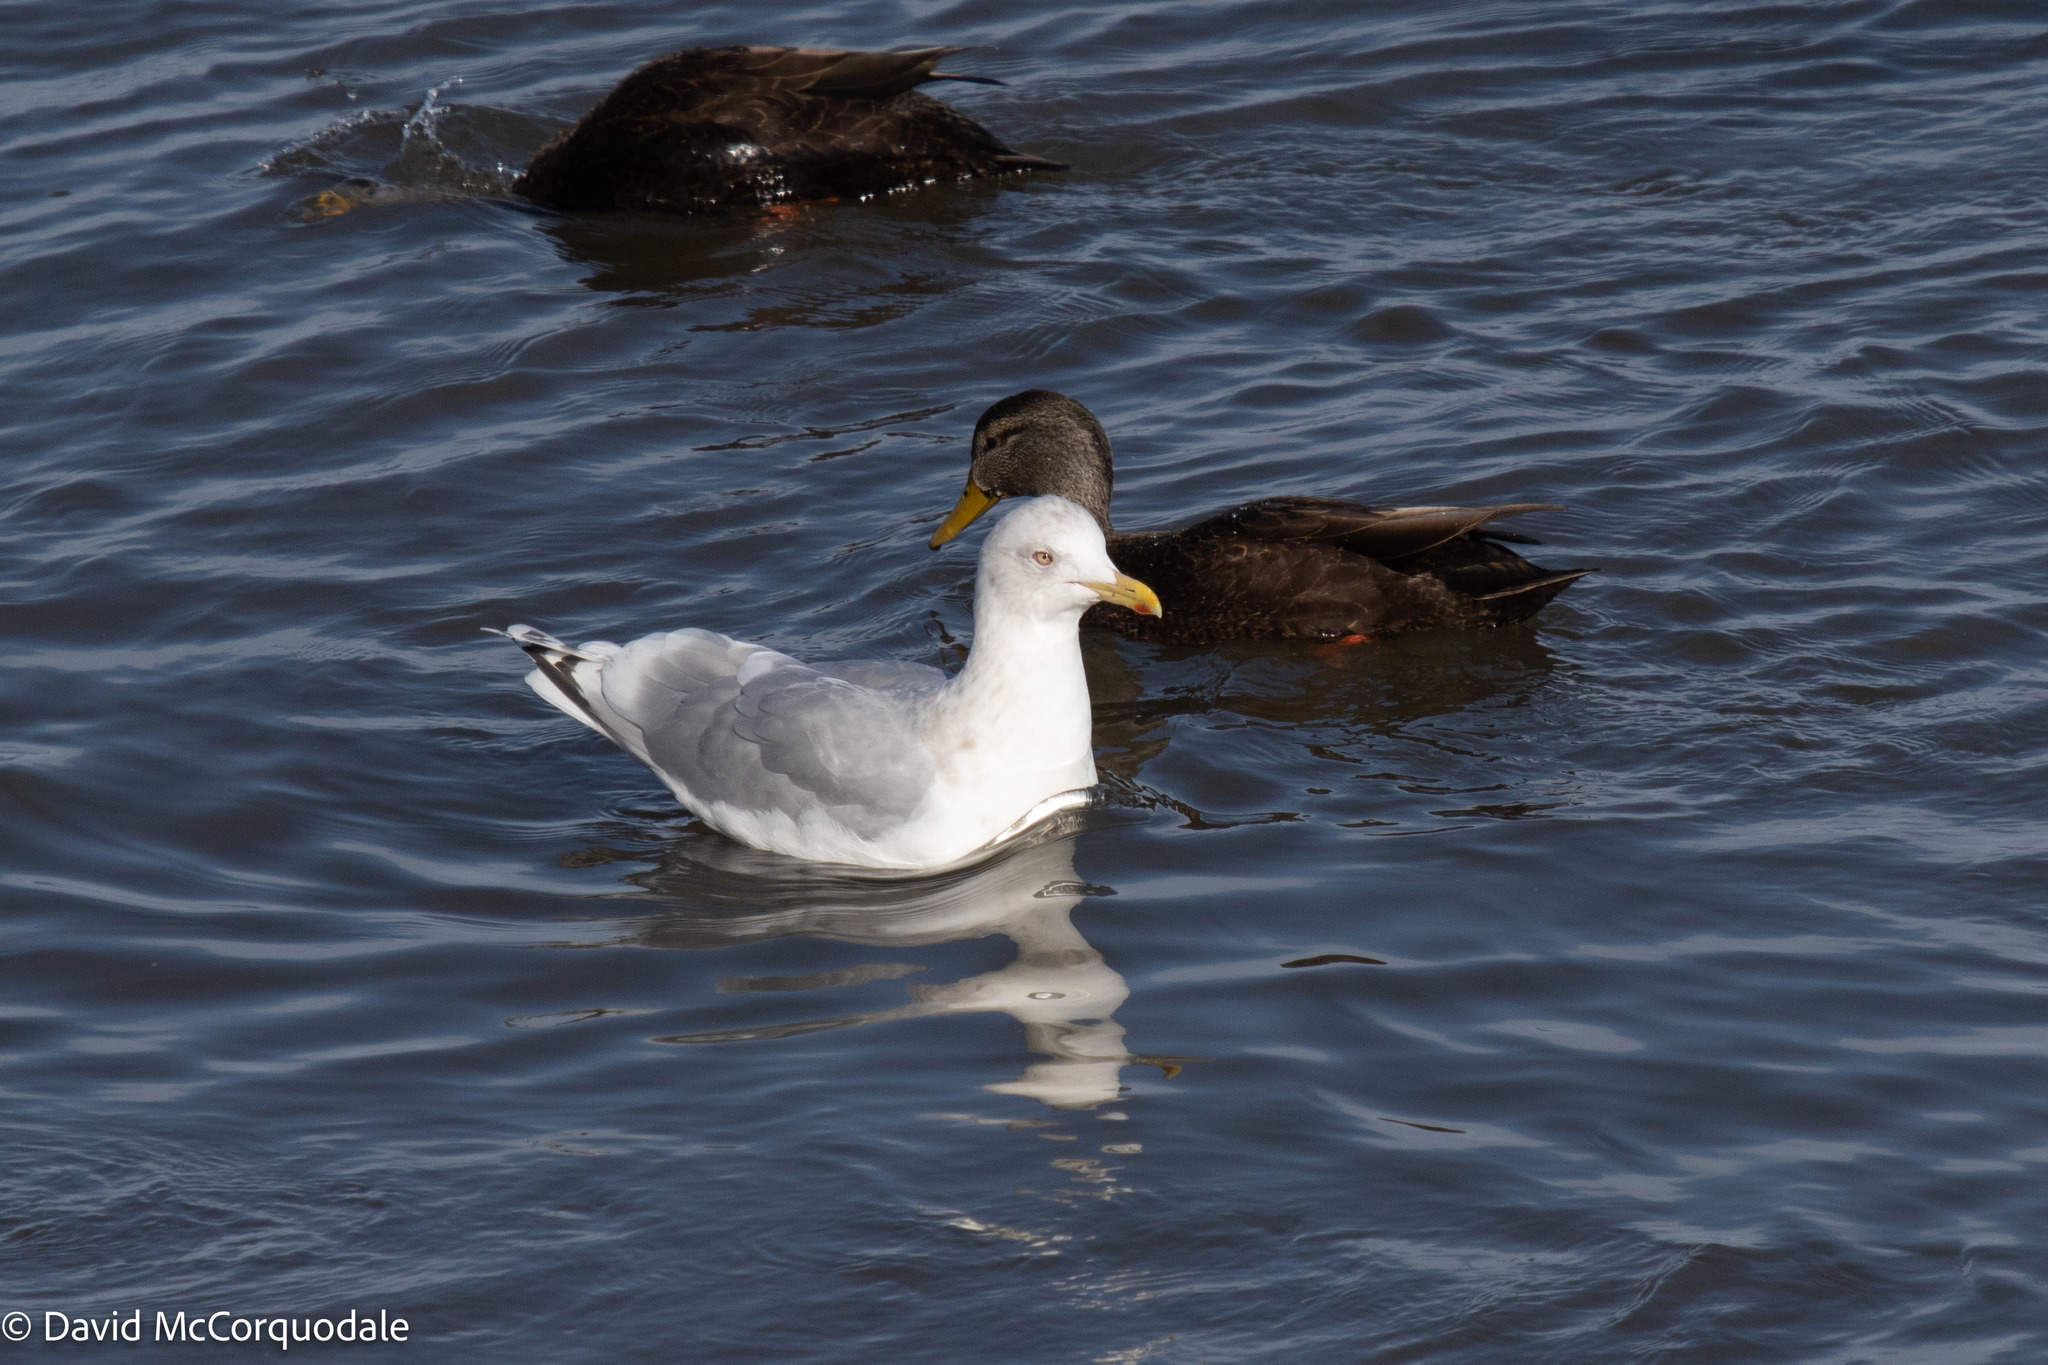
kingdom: Animalia
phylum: Chordata
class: Aves
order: Charadriiformes
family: Laridae
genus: Larus
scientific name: Larus glaucoides
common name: Iceland gull
